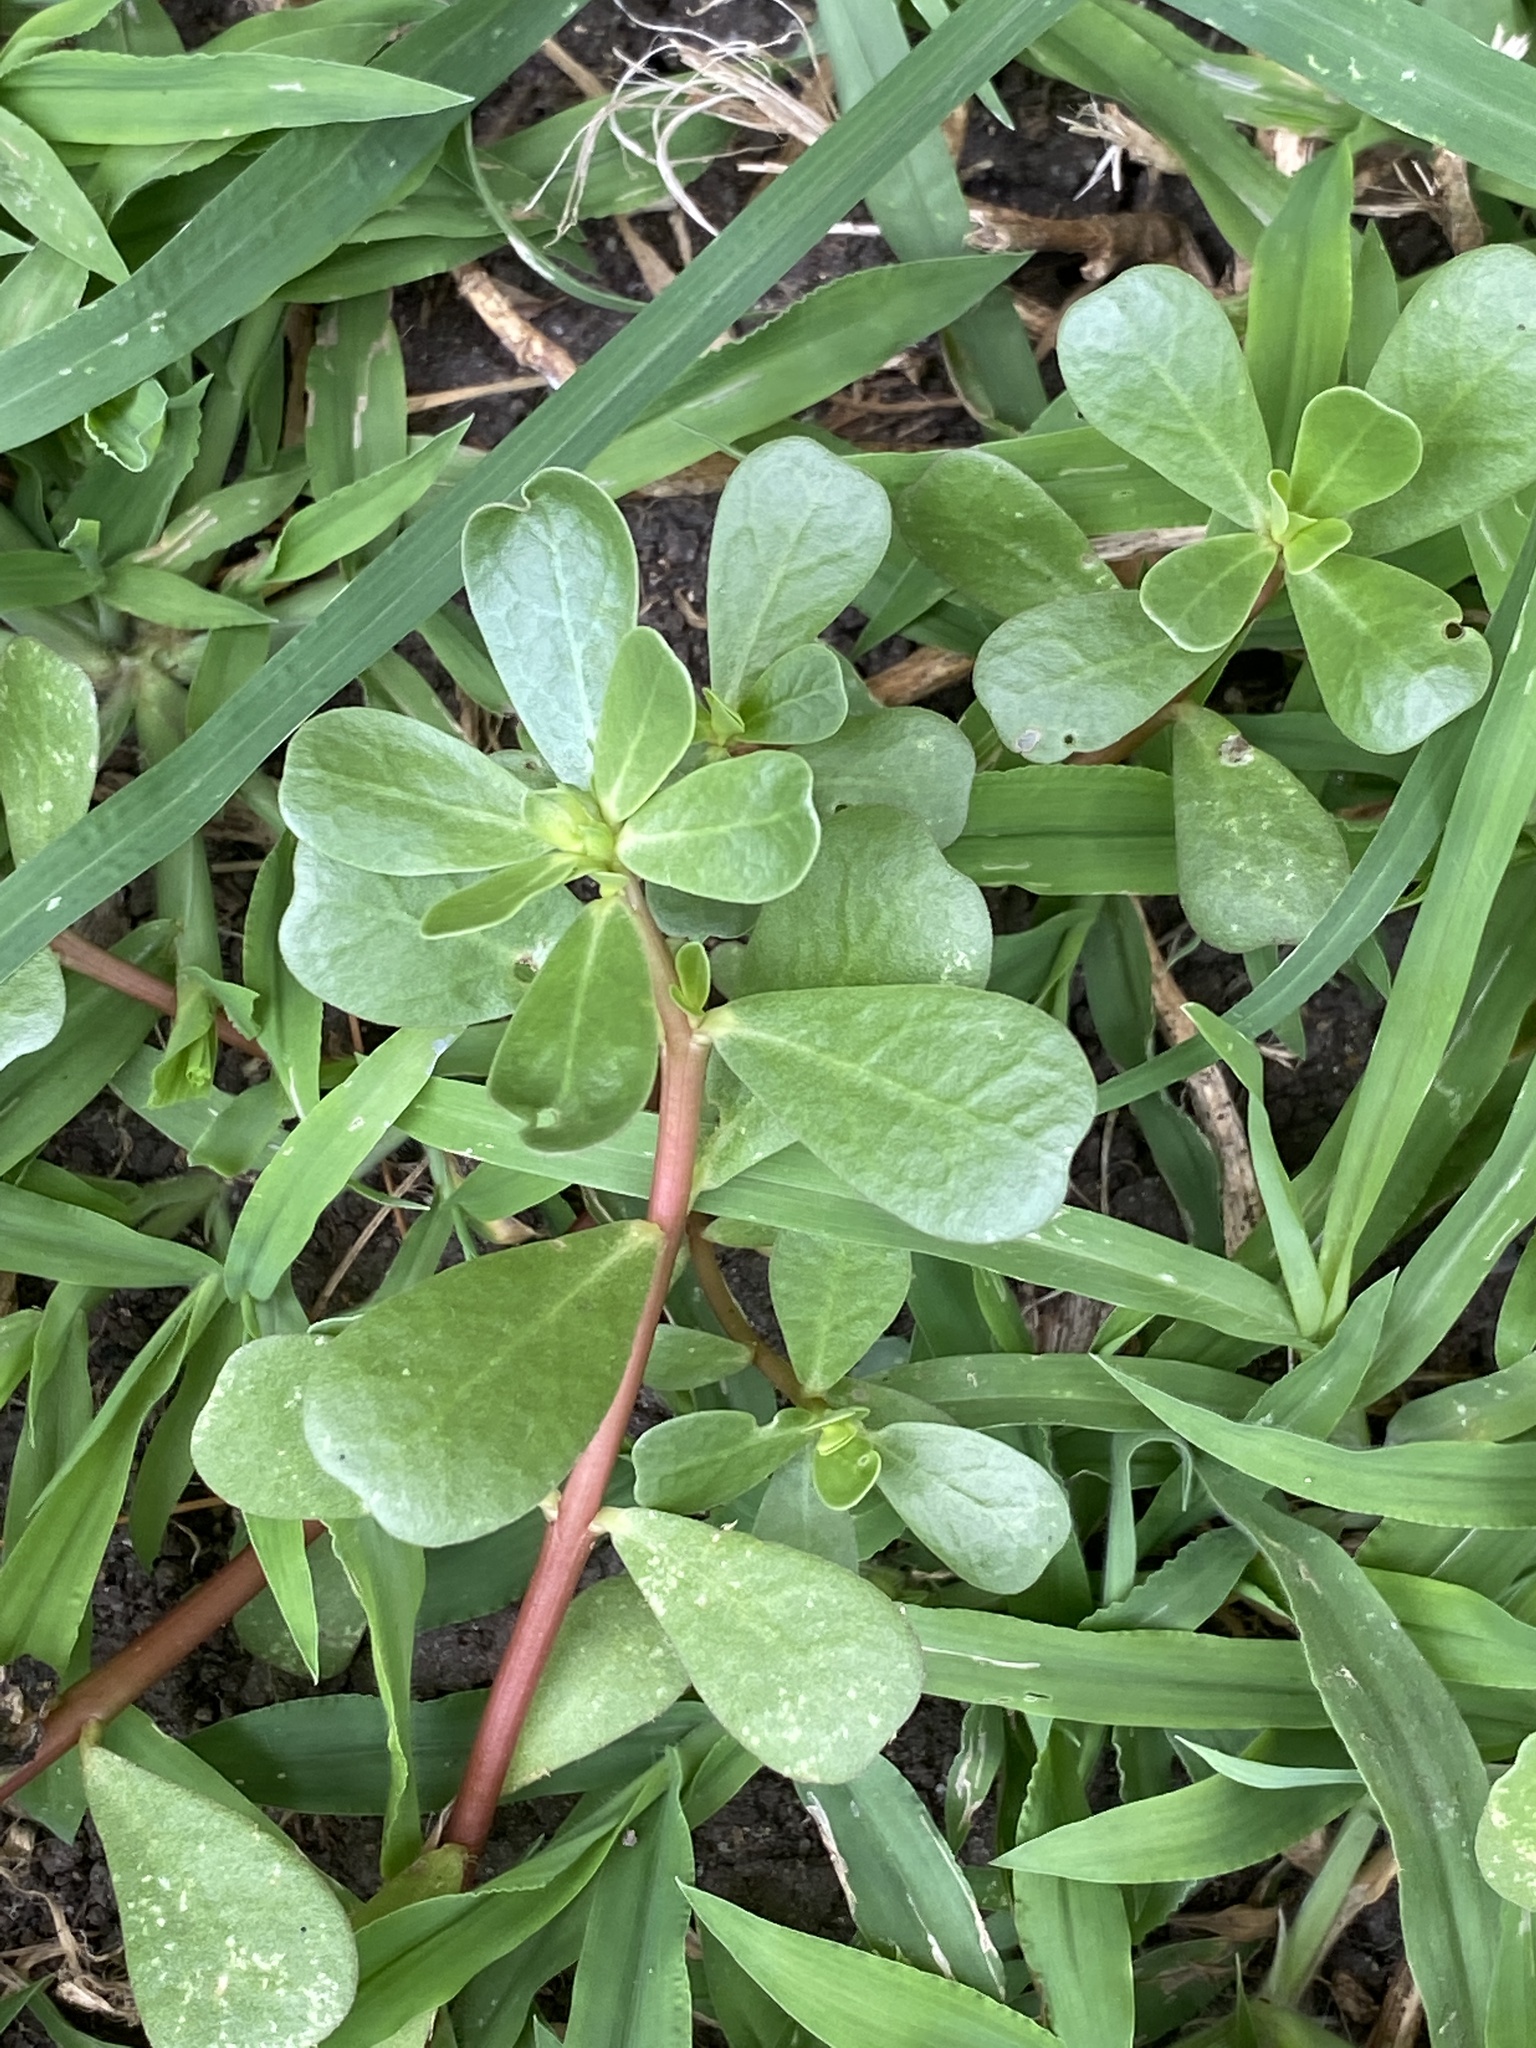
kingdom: Plantae
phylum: Tracheophyta
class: Magnoliopsida
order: Caryophyllales
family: Portulacaceae
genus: Portulaca
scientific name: Portulaca oleracea
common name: Common purslane
